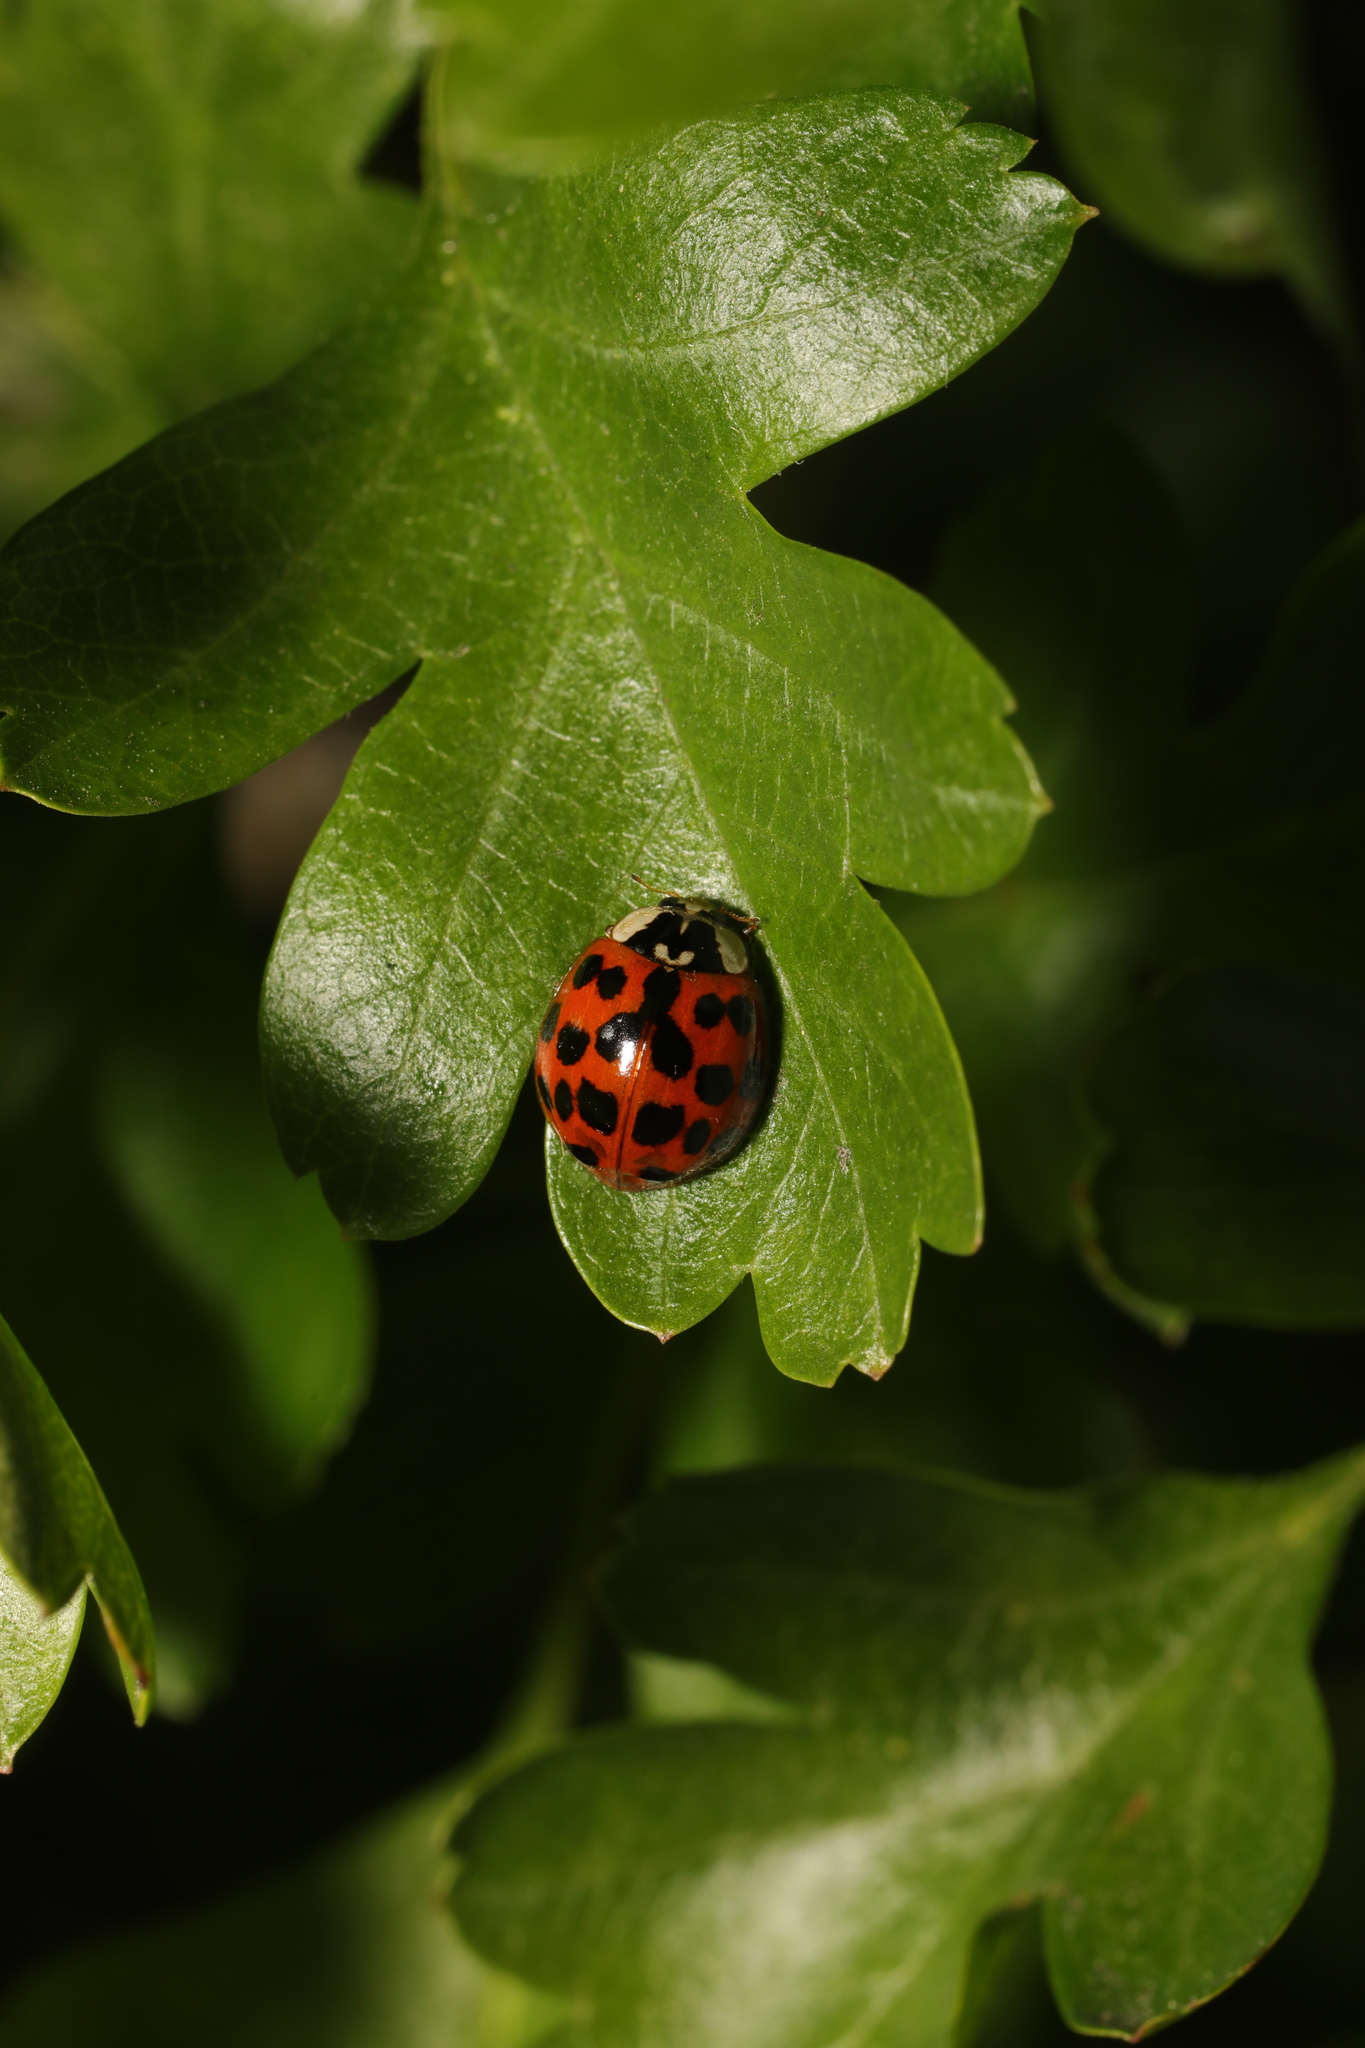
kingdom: Animalia
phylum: Arthropoda
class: Insecta
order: Coleoptera
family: Coccinellidae
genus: Harmonia
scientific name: Harmonia axyridis
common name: Harlequin ladybird
